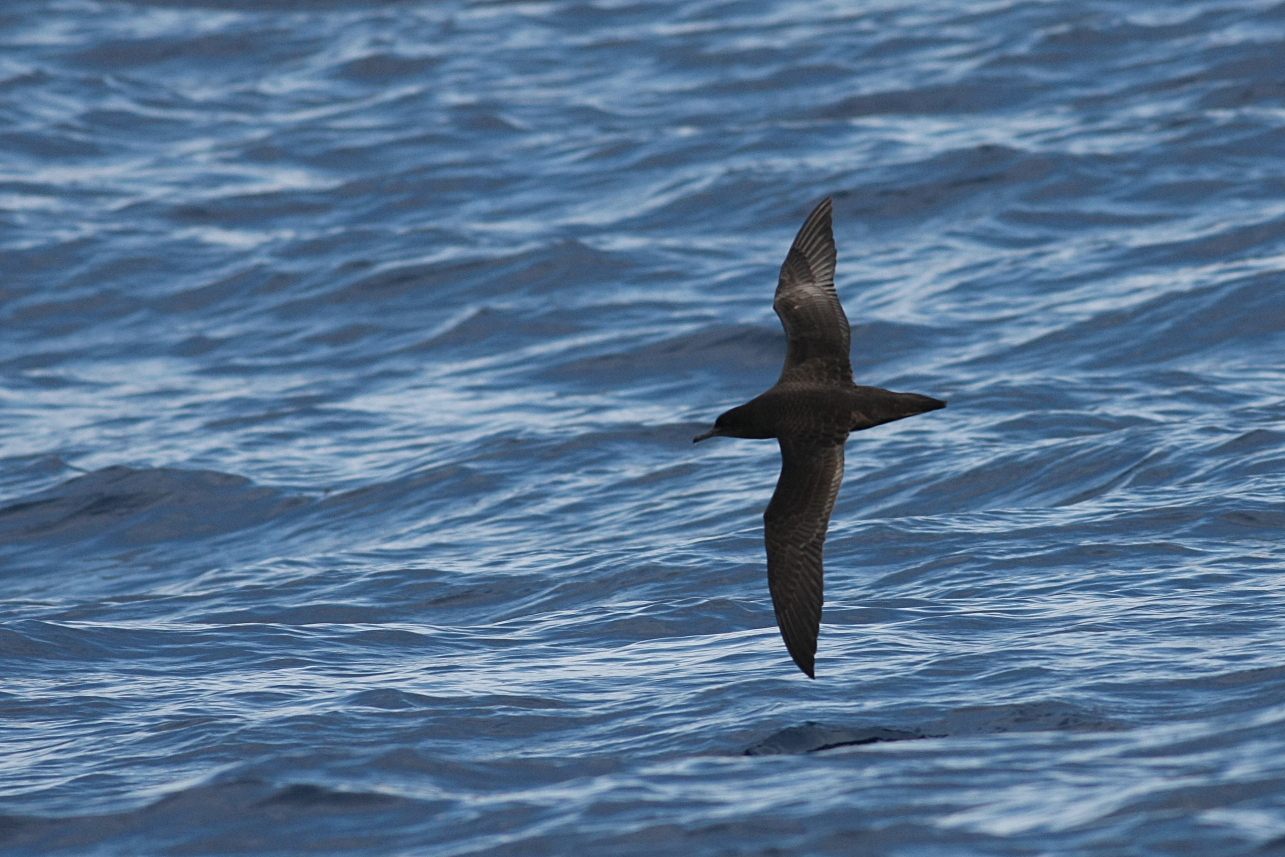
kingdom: Animalia
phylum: Chordata
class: Aves
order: Procellariiformes
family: Procellariidae
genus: Puffinus
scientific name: Puffinus griseus
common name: Sooty shearwater
